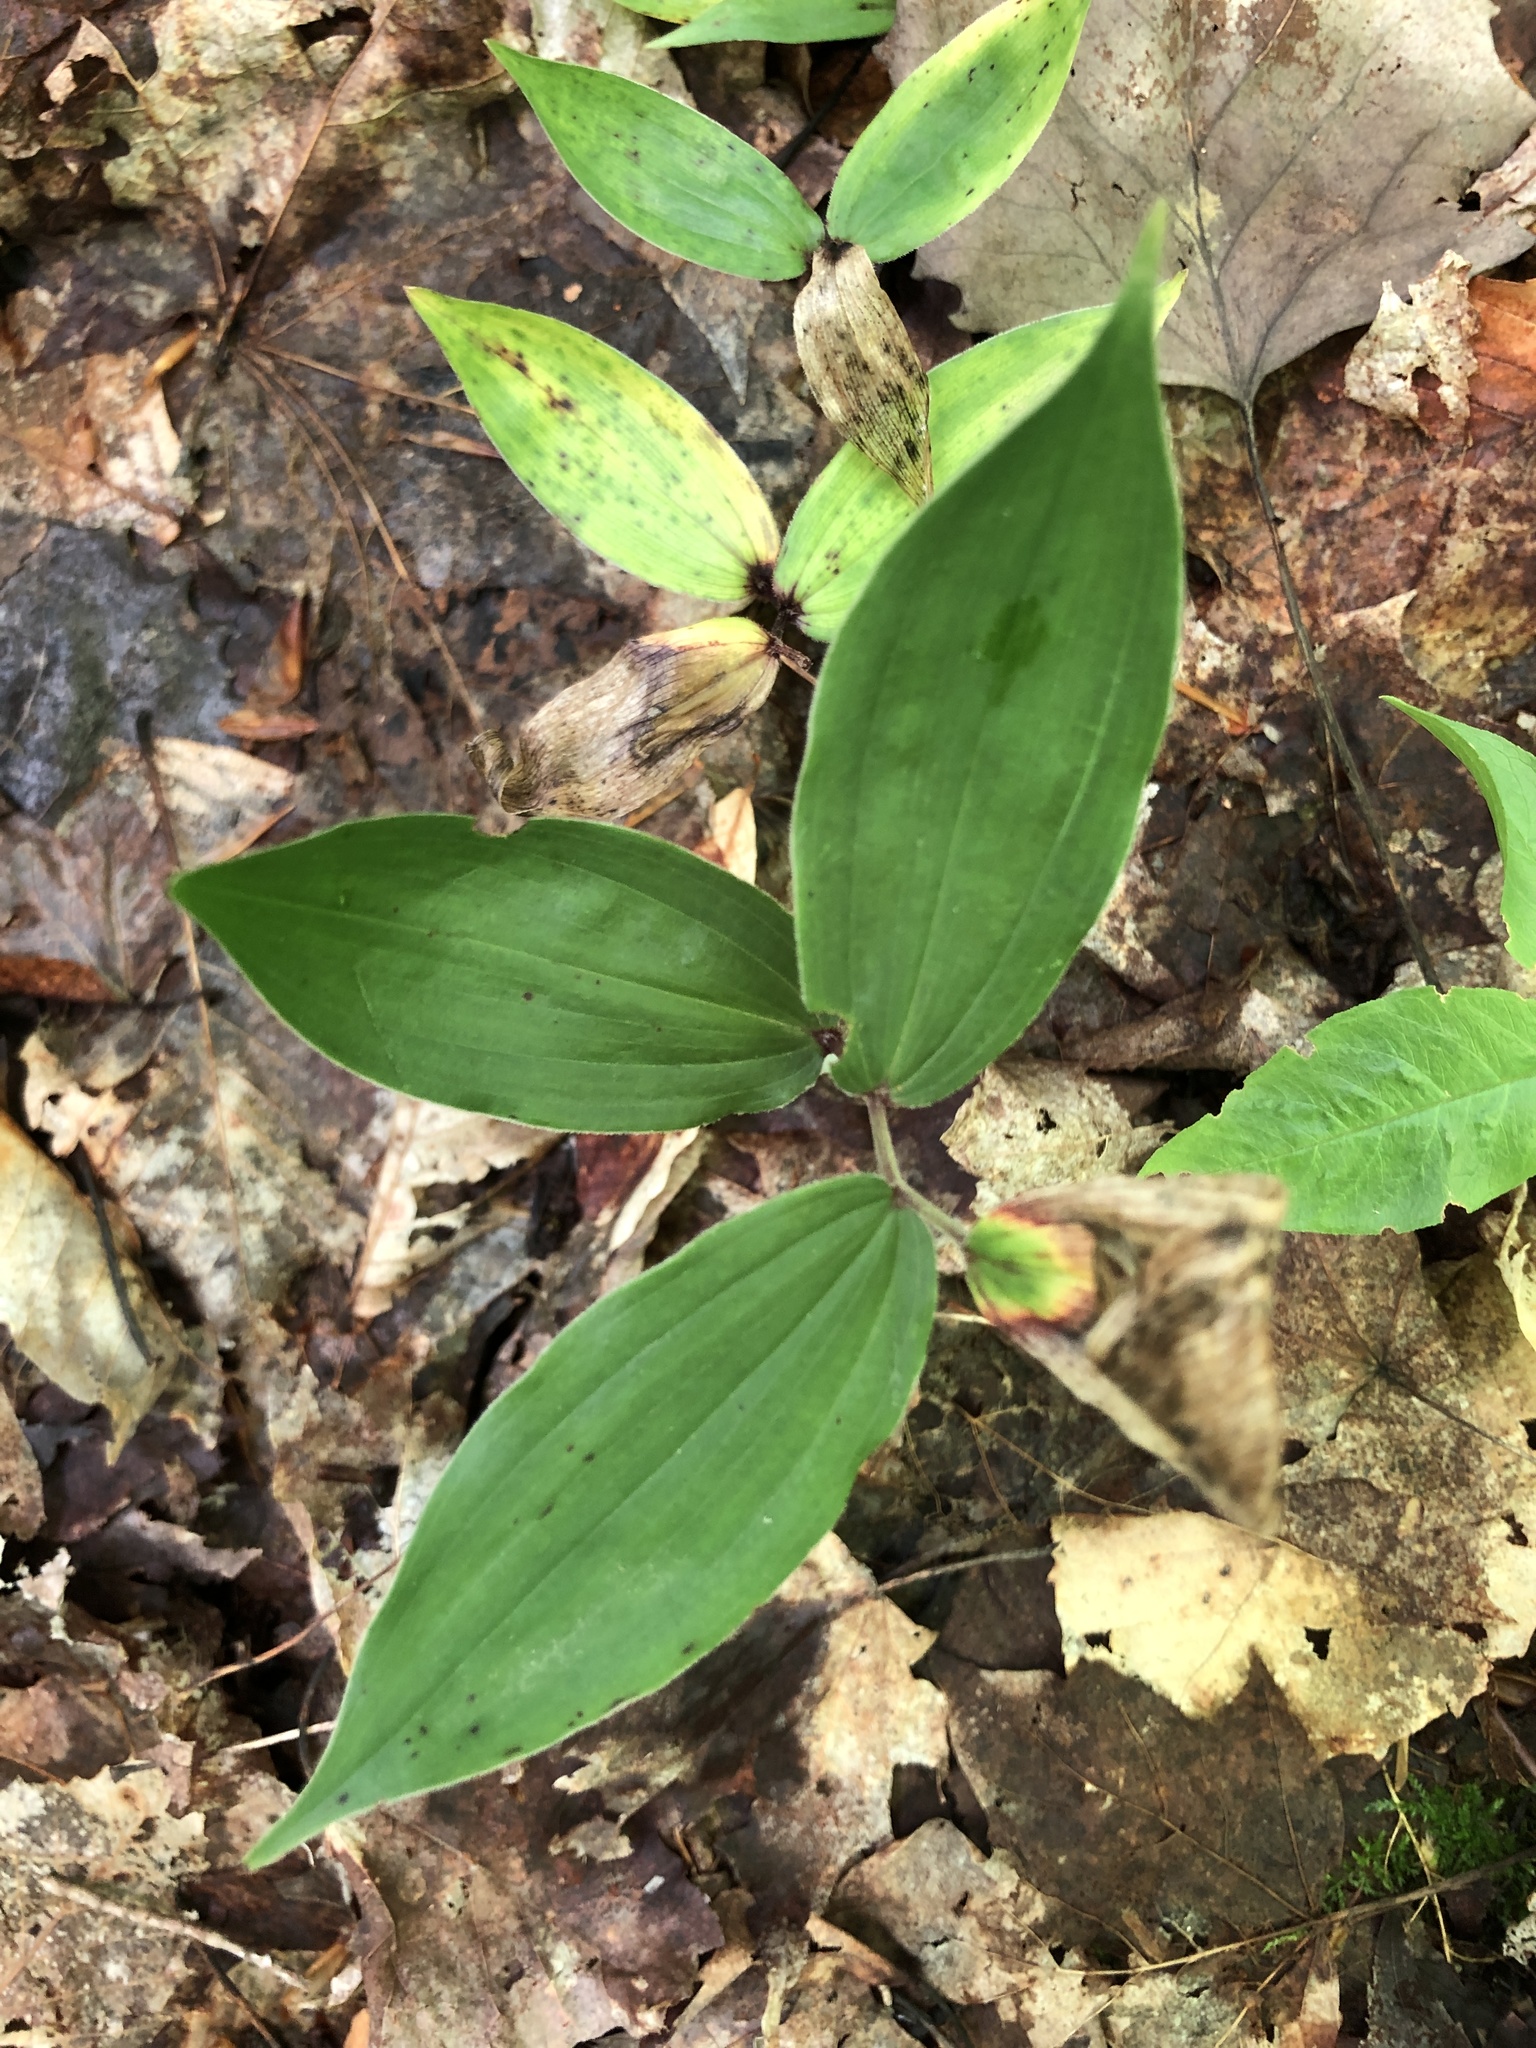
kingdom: Plantae
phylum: Tracheophyta
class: Liliopsida
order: Asparagales
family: Asparagaceae
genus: Maianthemum
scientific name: Maianthemum racemosum
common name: False spikenard
